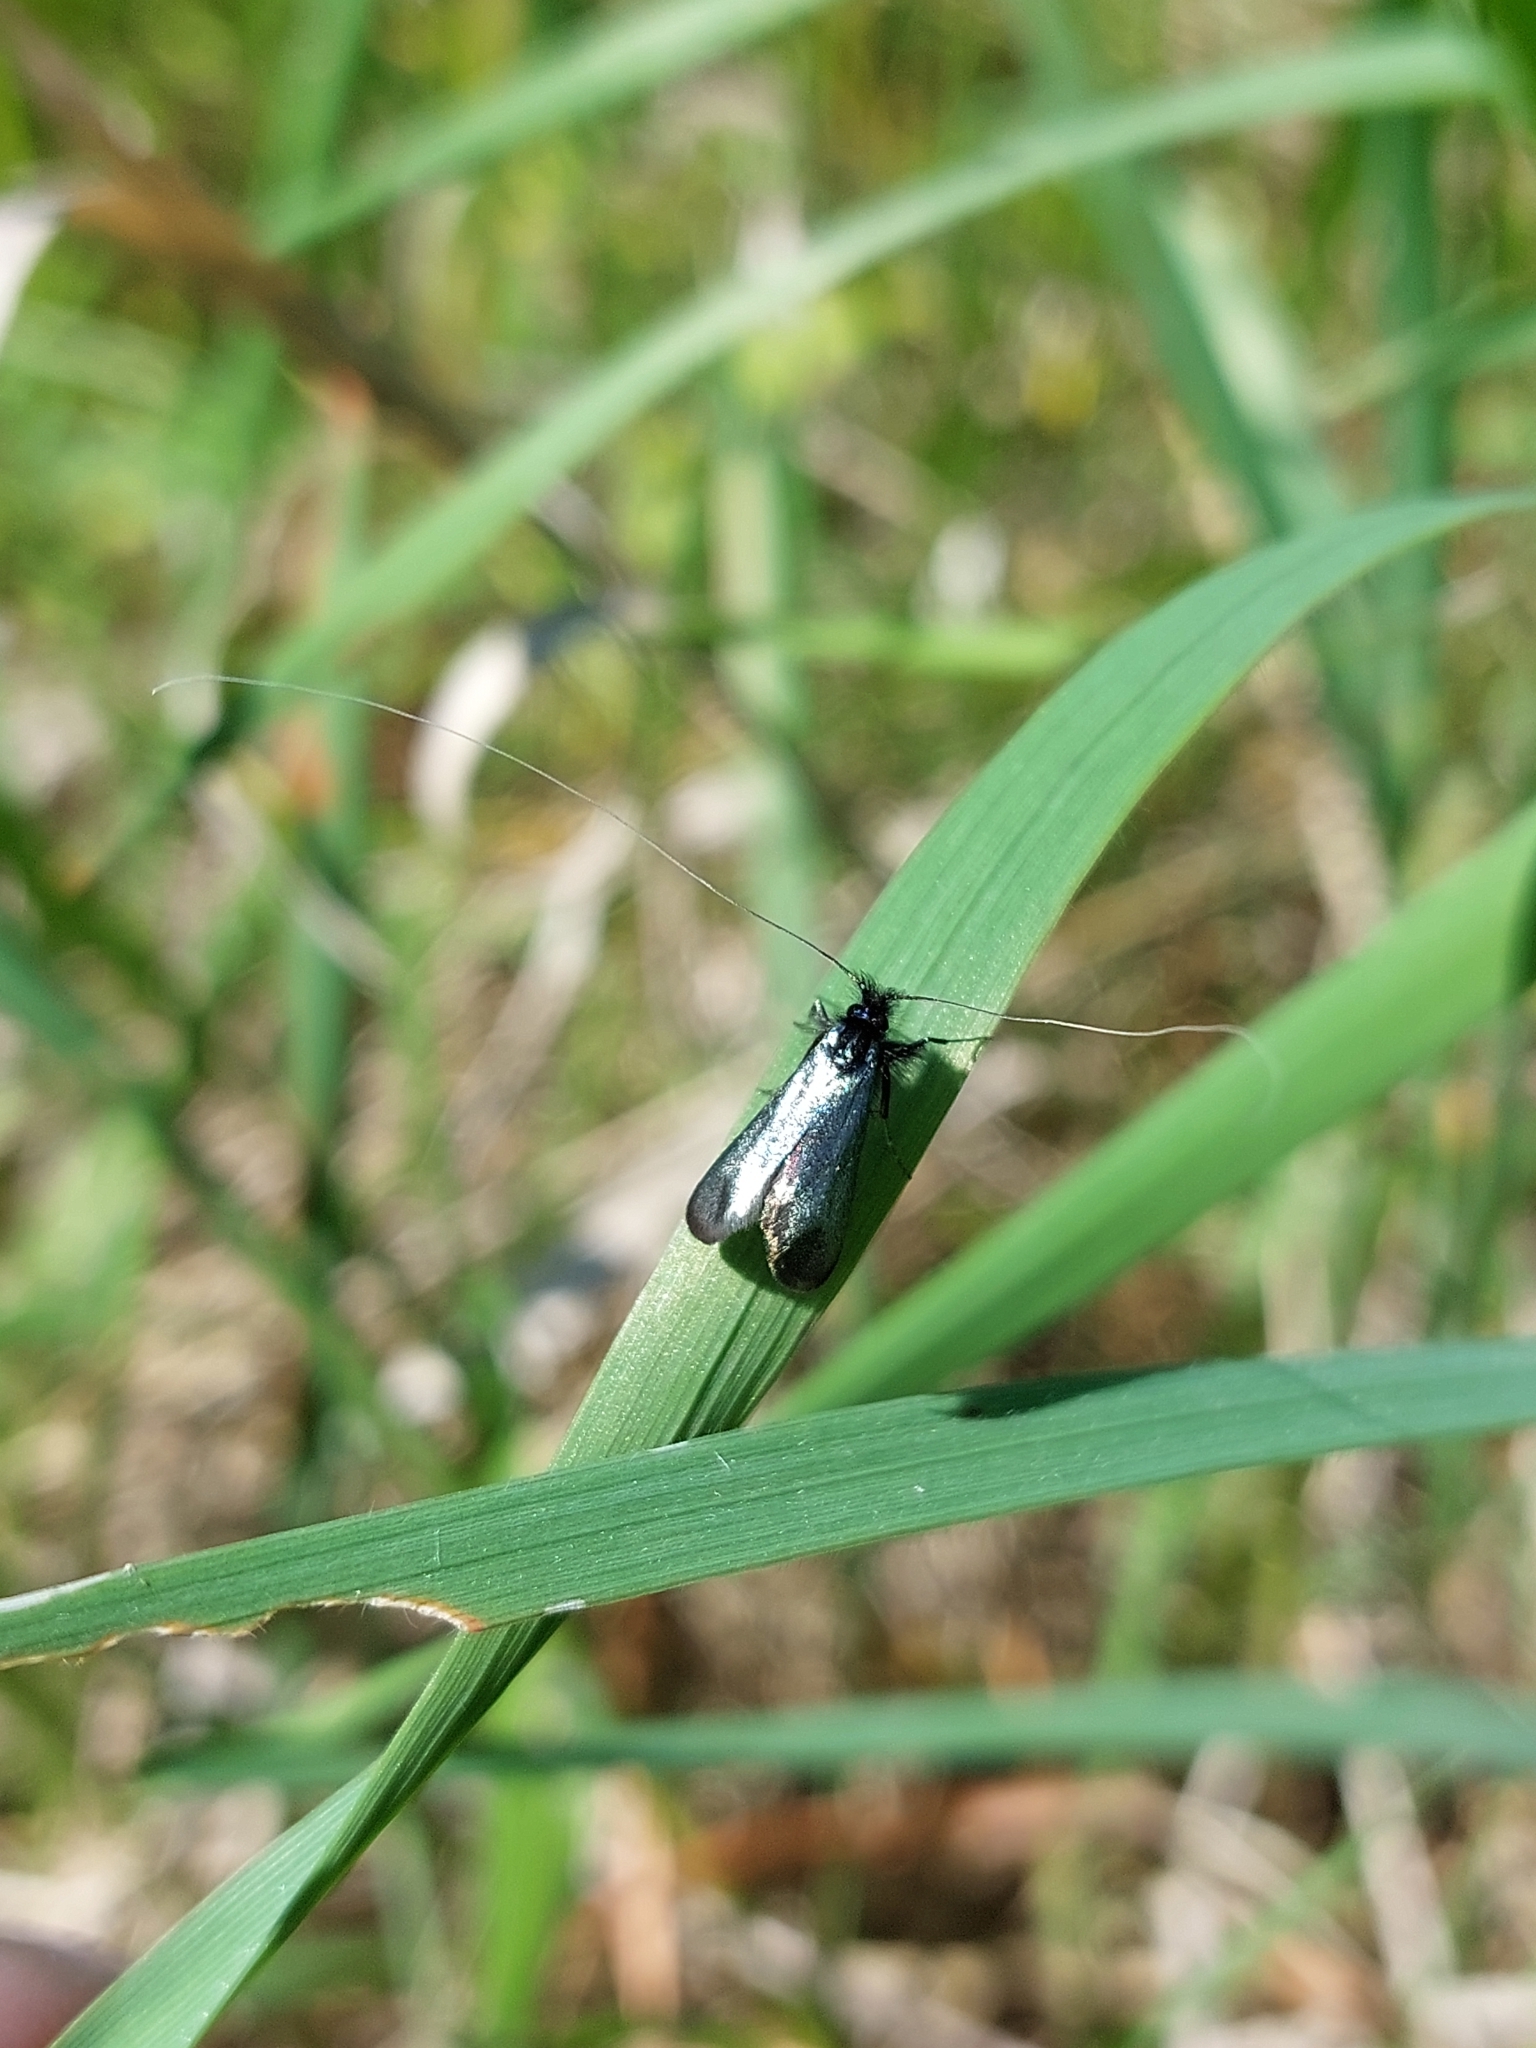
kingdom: Animalia
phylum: Arthropoda
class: Insecta
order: Lepidoptera
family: Adelidae
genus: Adela
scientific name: Adela viridella
